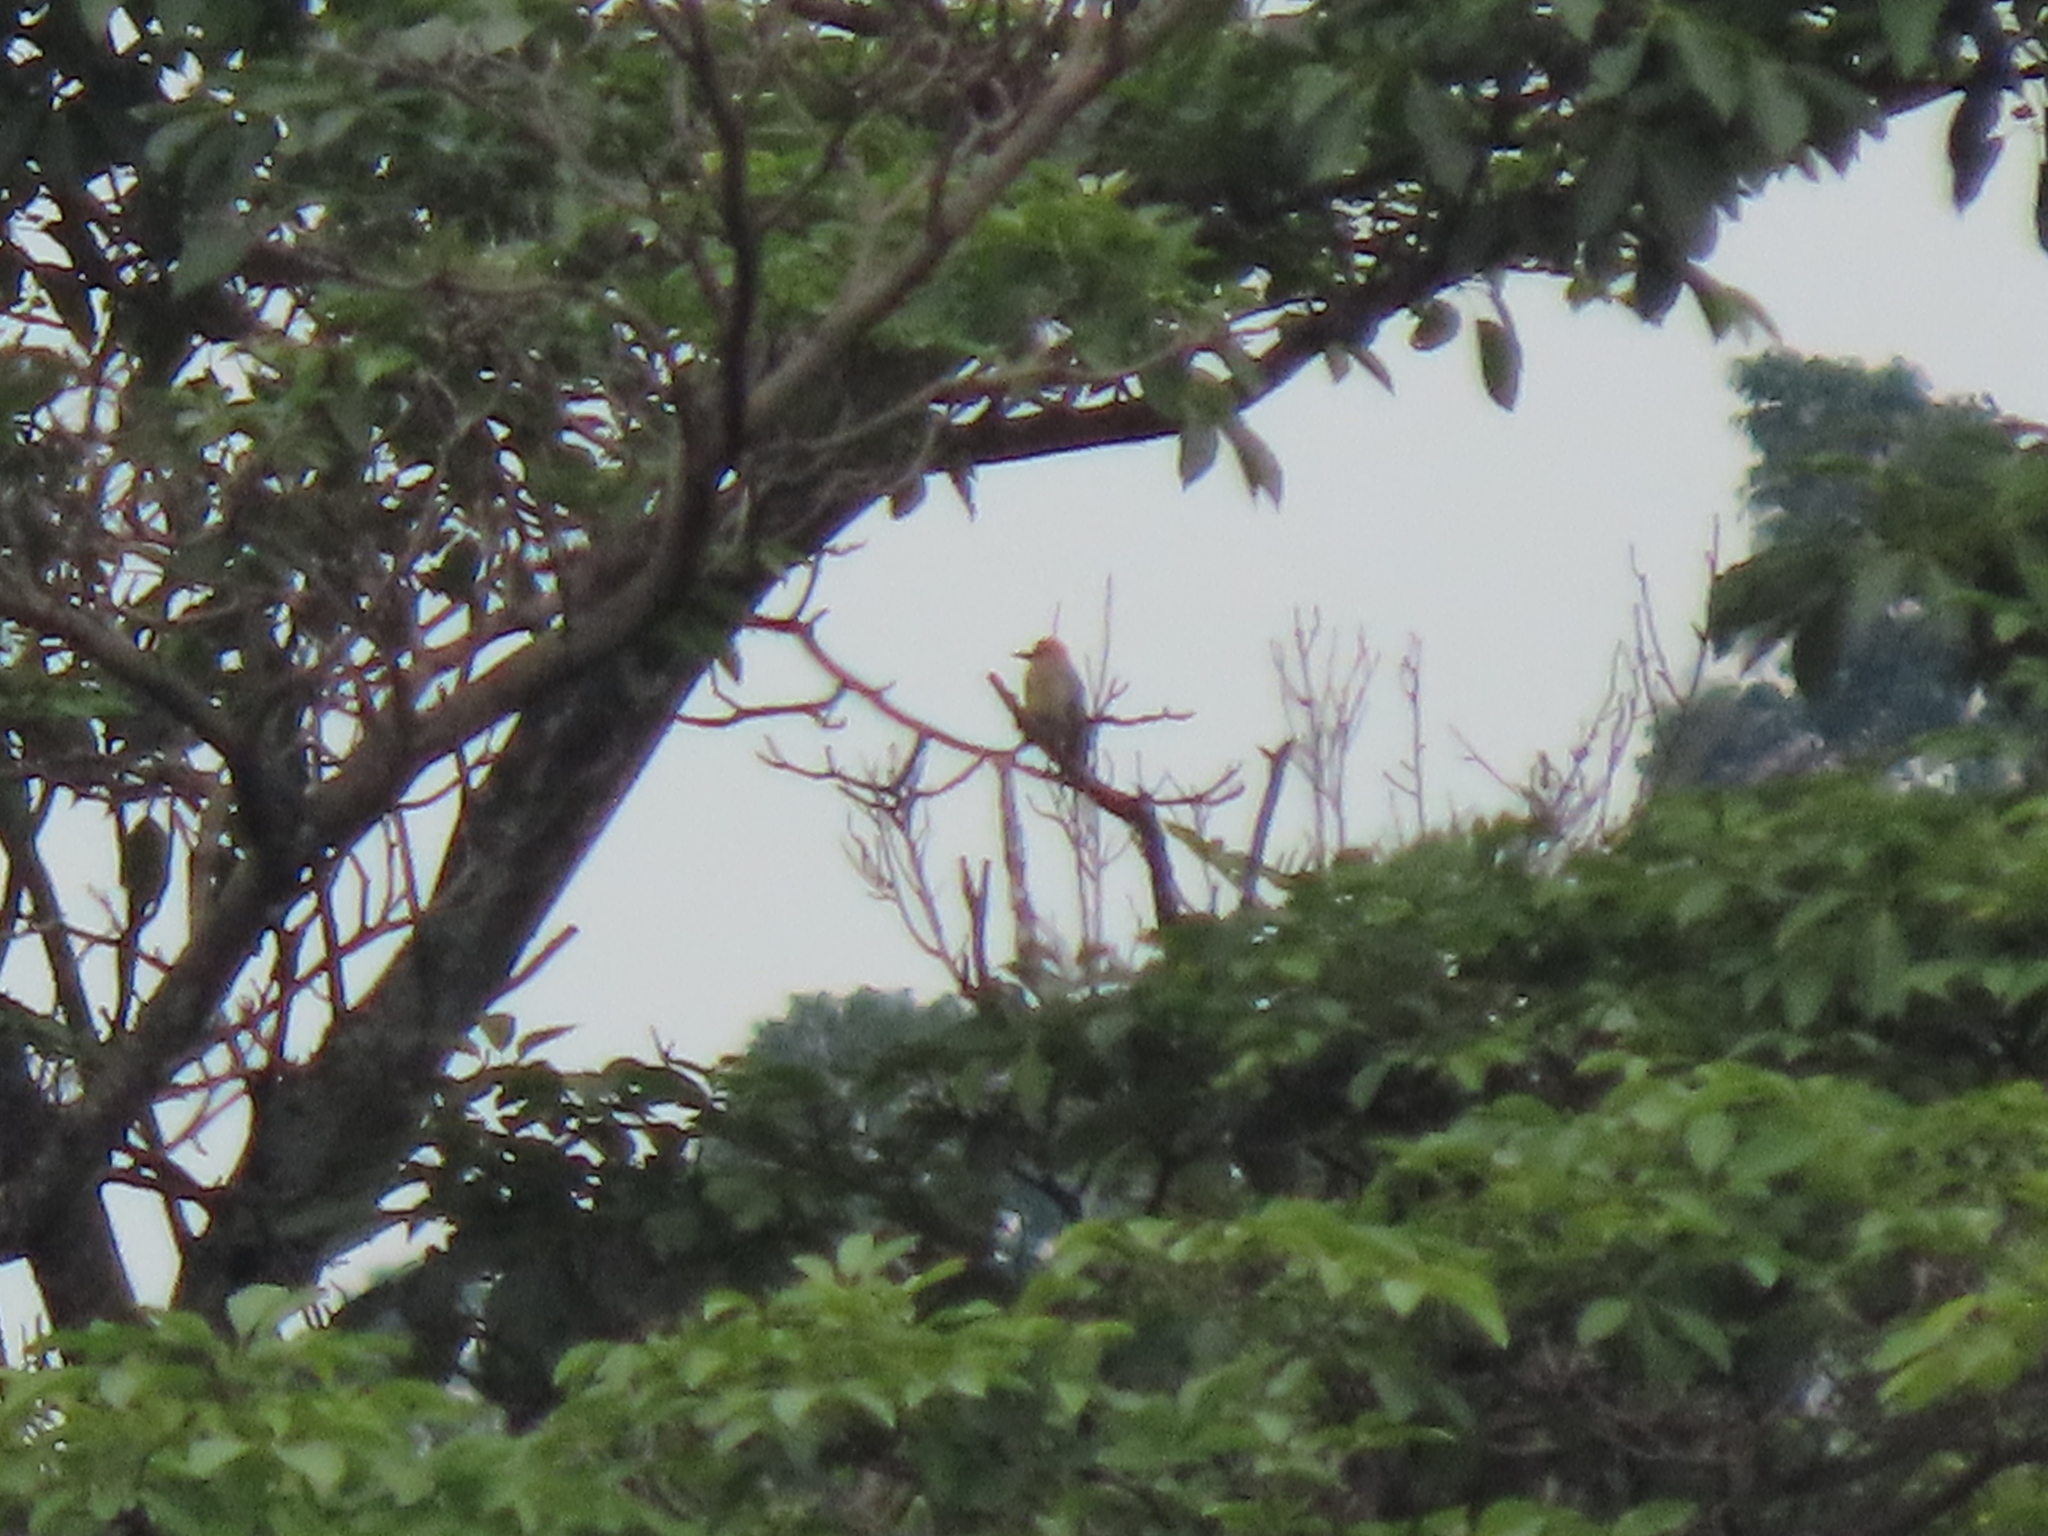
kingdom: Animalia
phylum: Chordata
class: Aves
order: Piciformes
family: Picidae
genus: Melanerpes
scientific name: Melanerpes rubricapillus
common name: Red-crowned woodpecker
